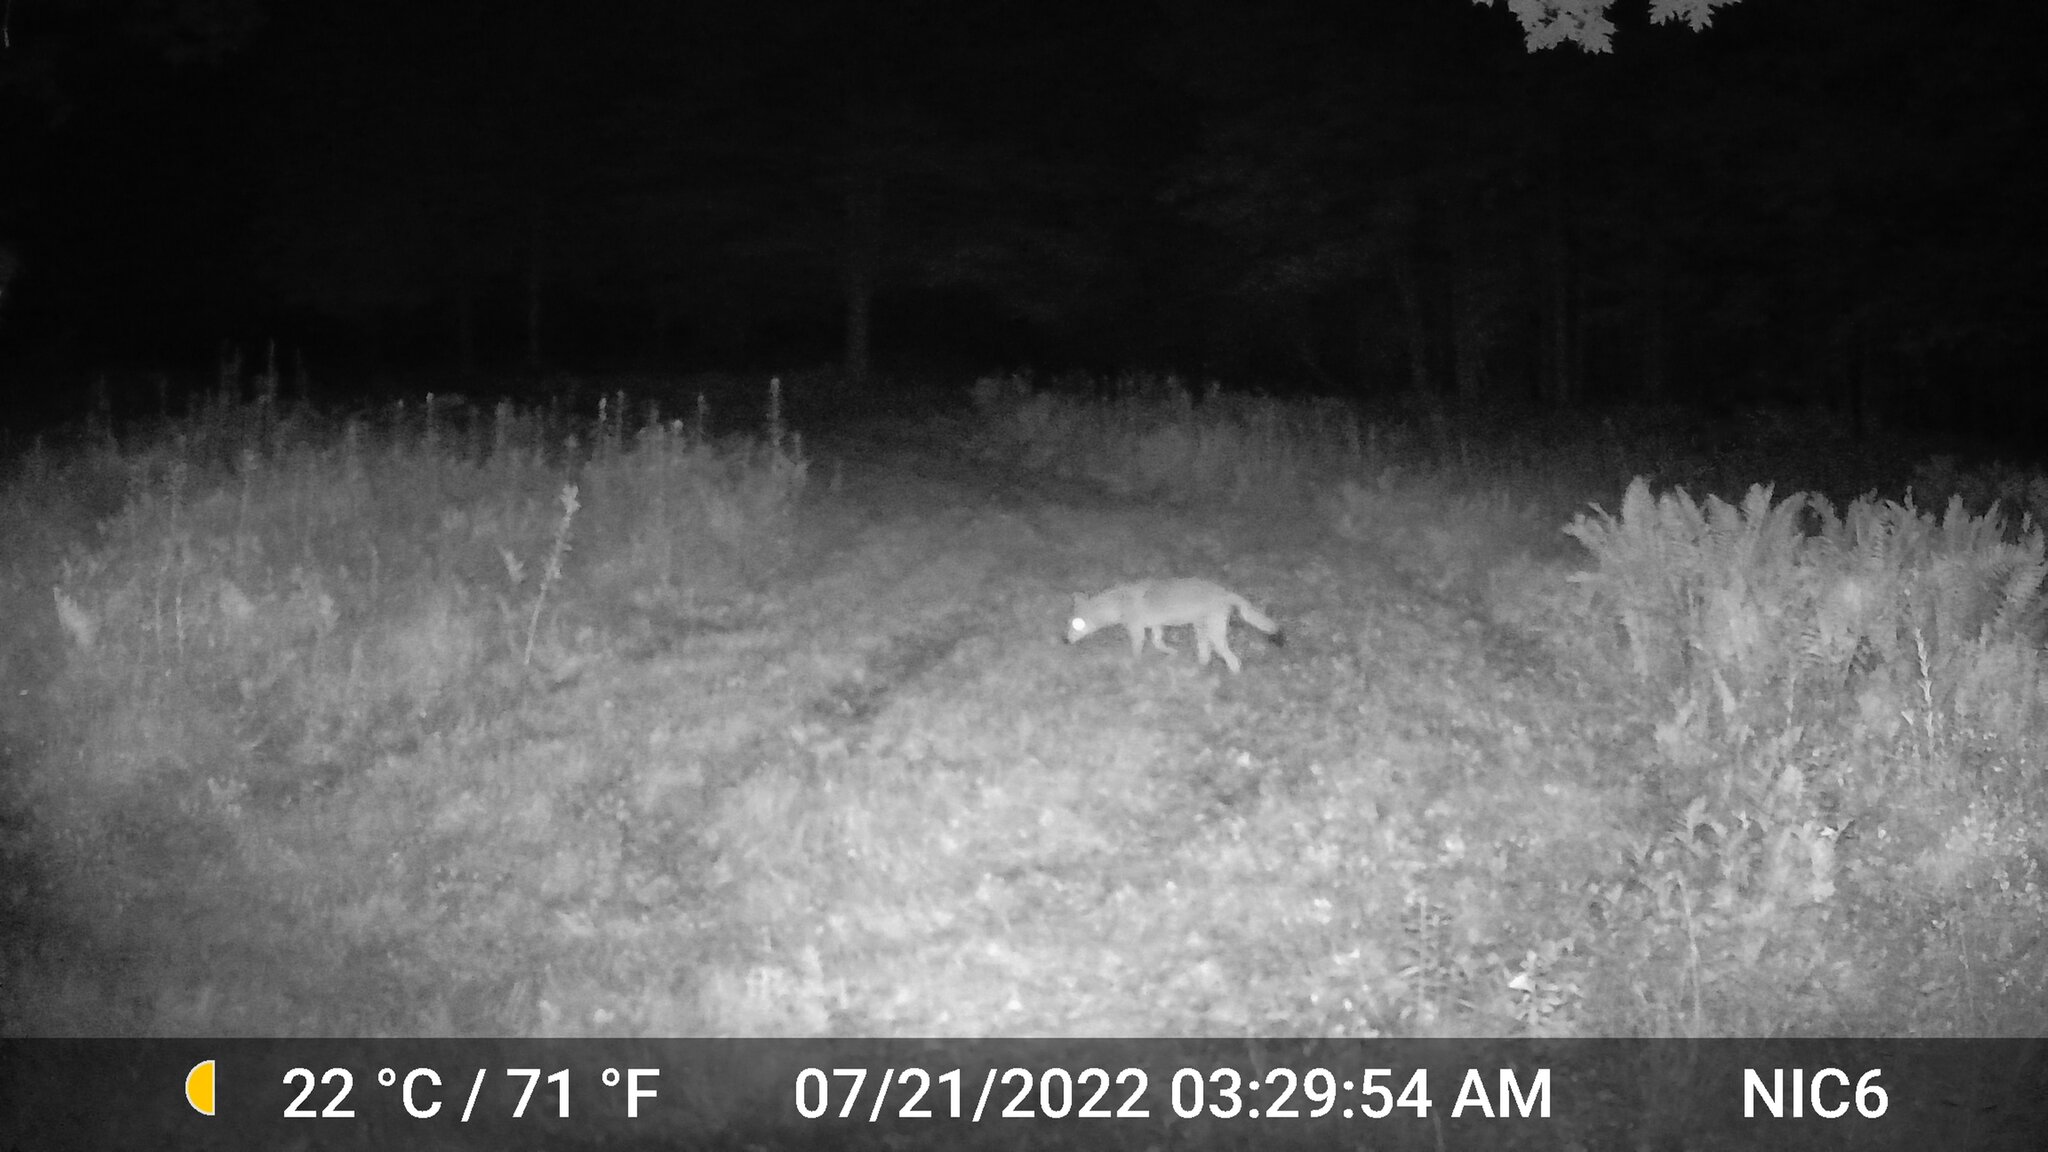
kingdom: Animalia
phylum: Chordata
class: Mammalia
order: Carnivora
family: Canidae
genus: Canis
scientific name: Canis latrans
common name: Coyote
